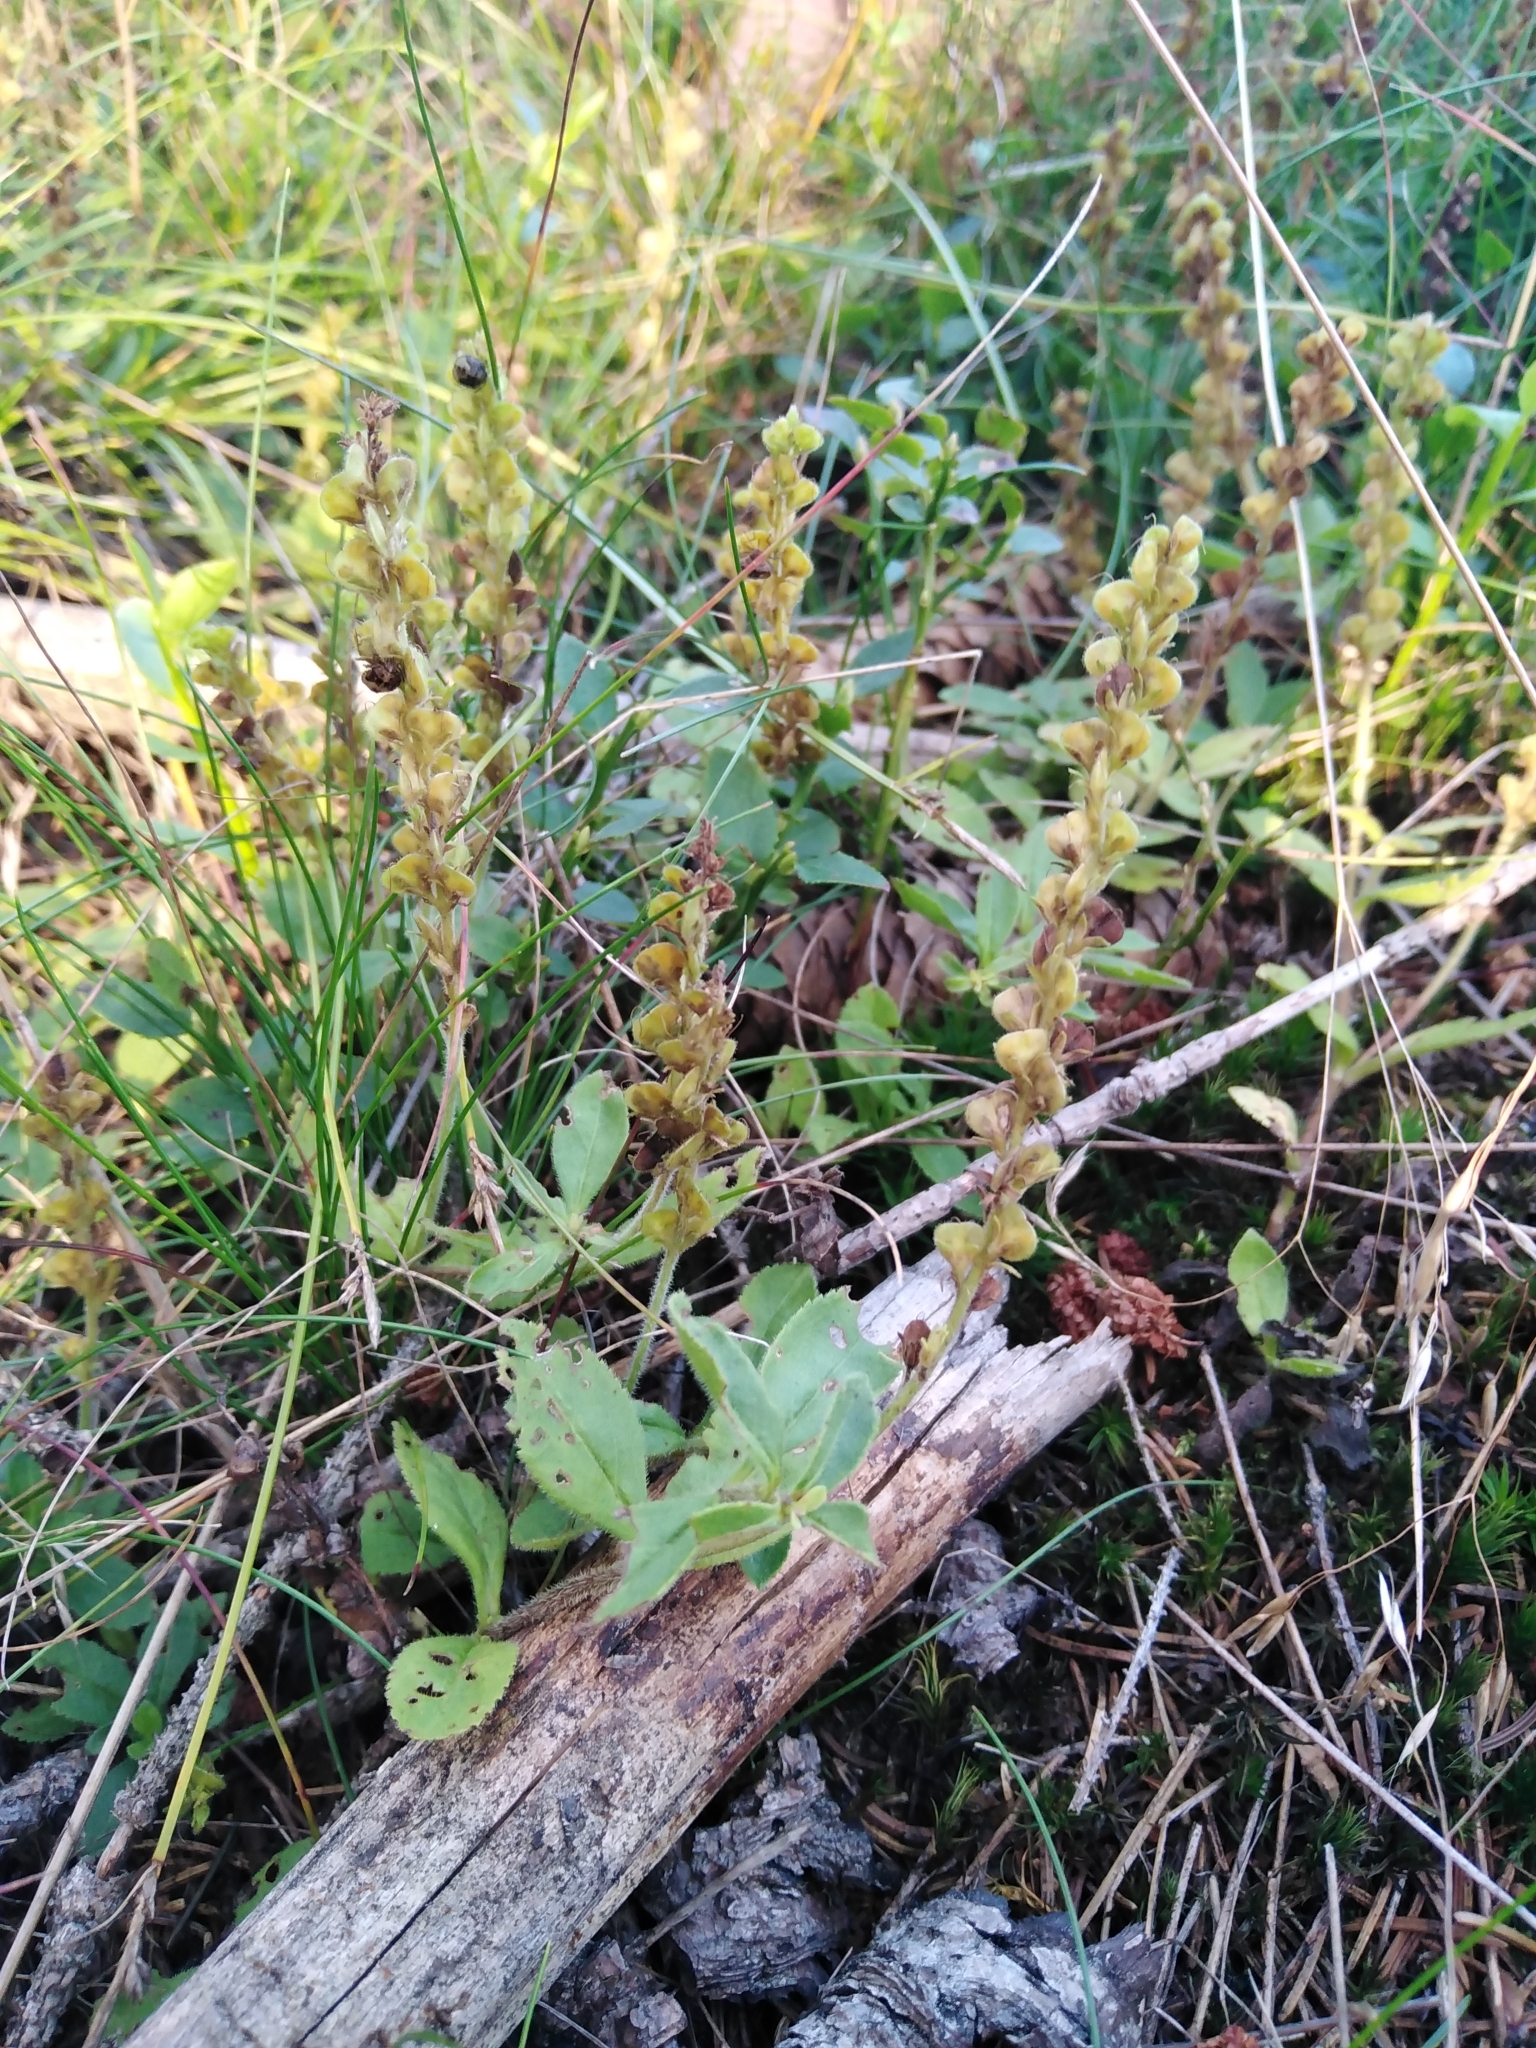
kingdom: Plantae
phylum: Tracheophyta
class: Magnoliopsida
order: Lamiales
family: Plantaginaceae
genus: Veronica
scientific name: Veronica officinalis
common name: Common speedwell
